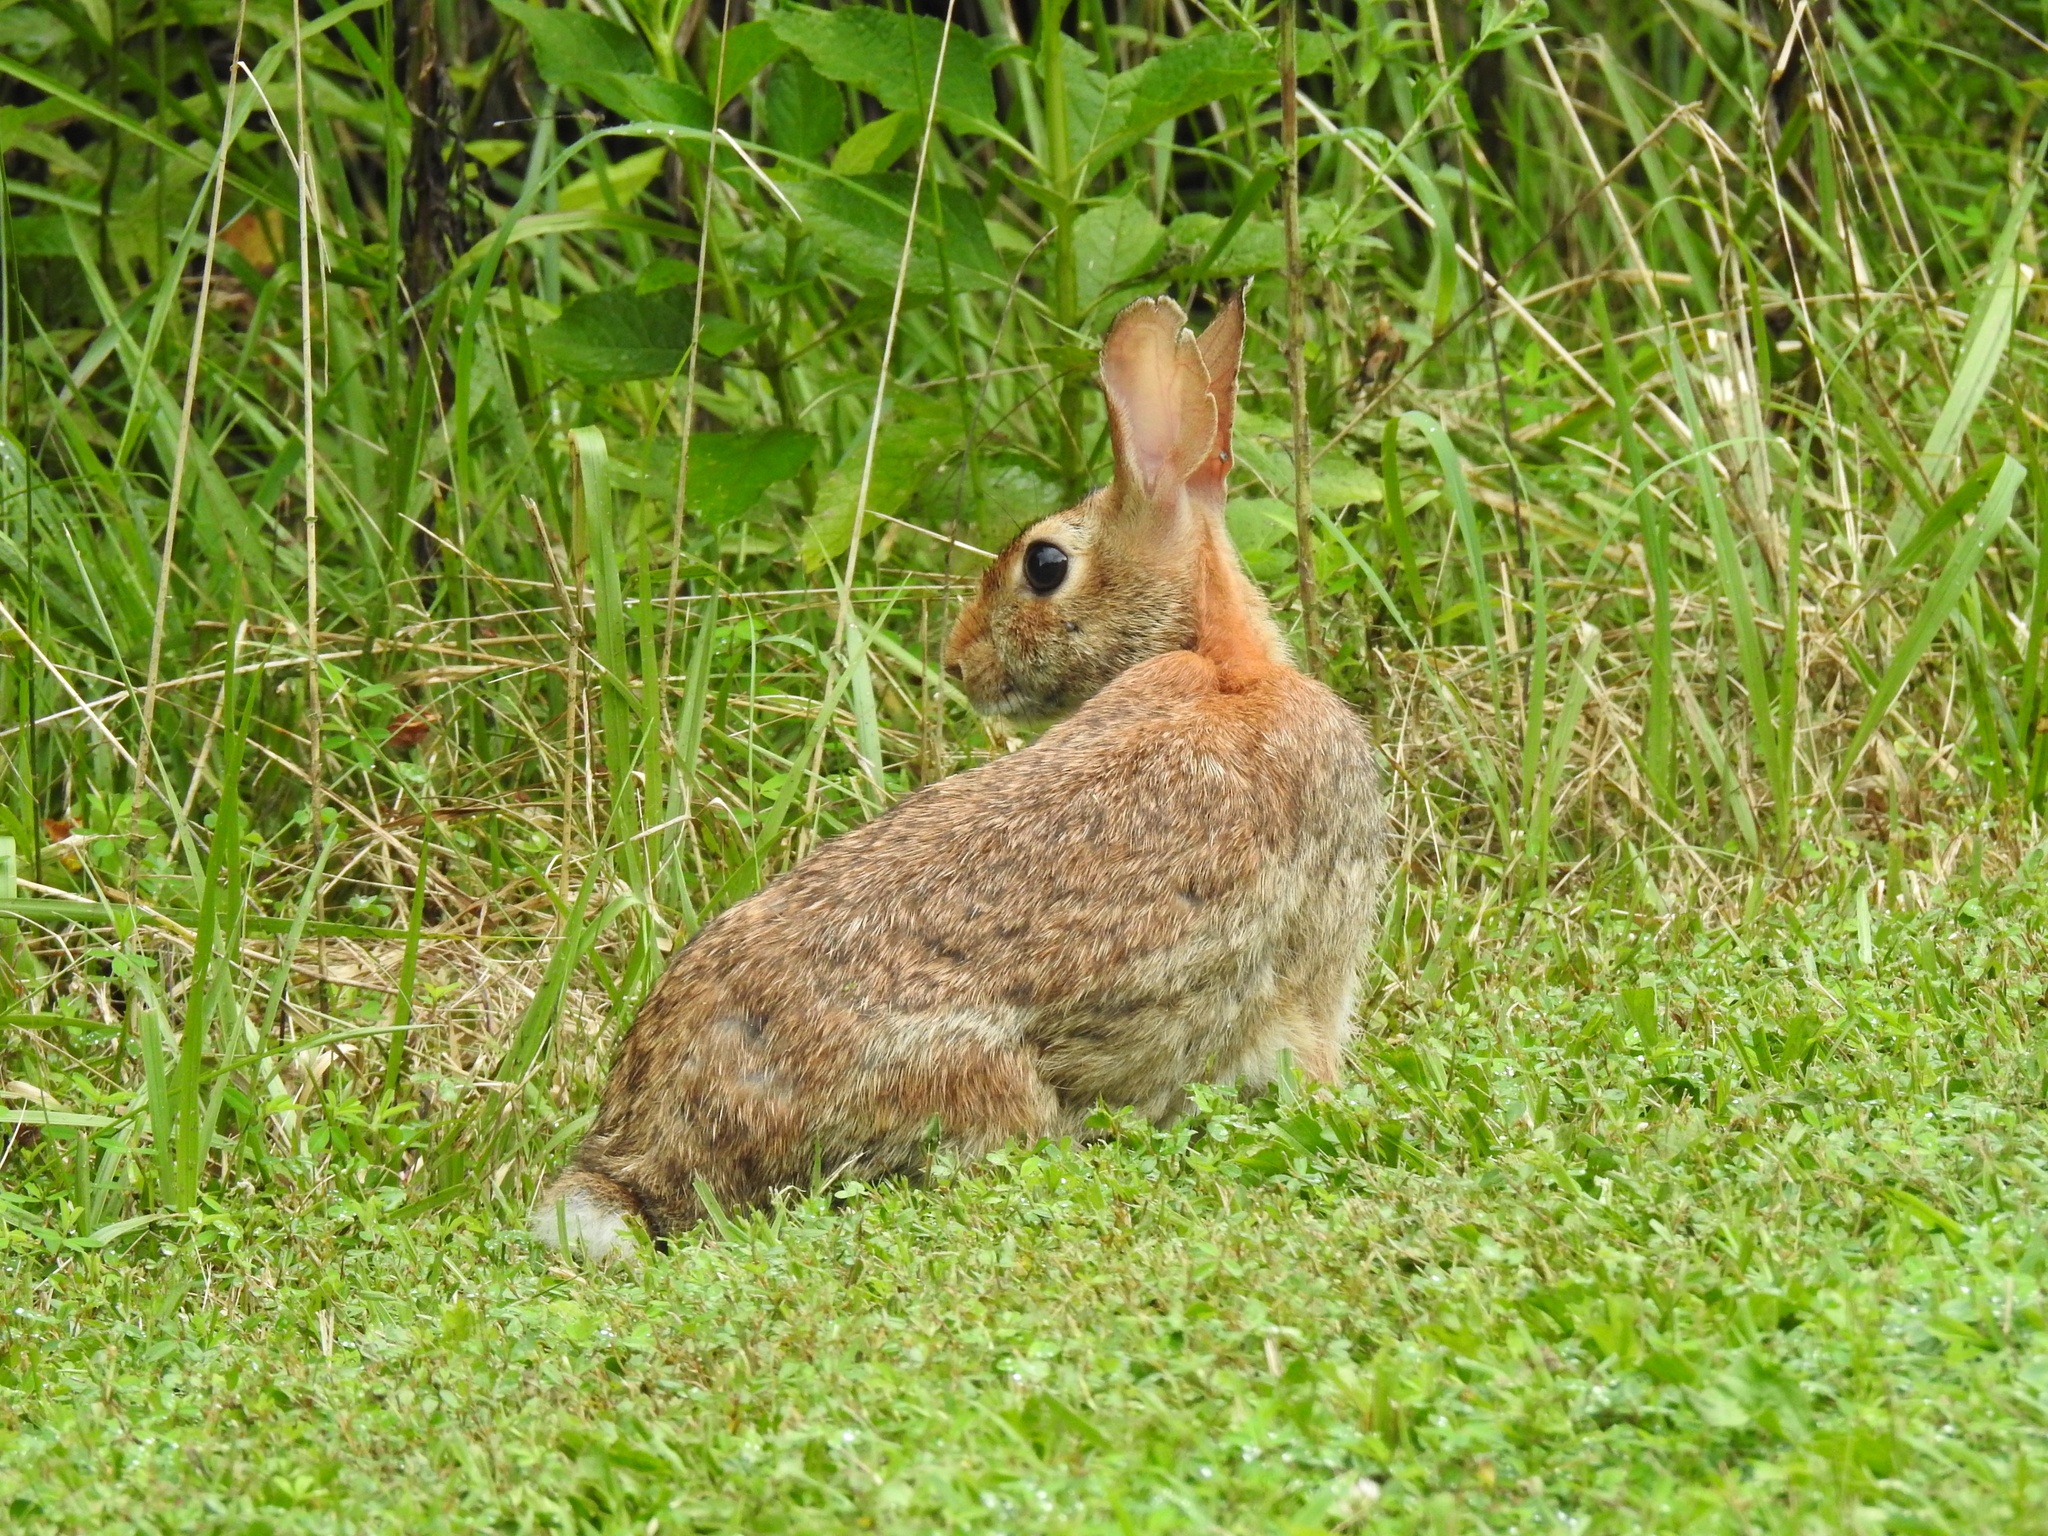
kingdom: Animalia
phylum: Chordata
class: Mammalia
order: Lagomorpha
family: Leporidae
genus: Sylvilagus
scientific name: Sylvilagus floridanus
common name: Eastern cottontail
